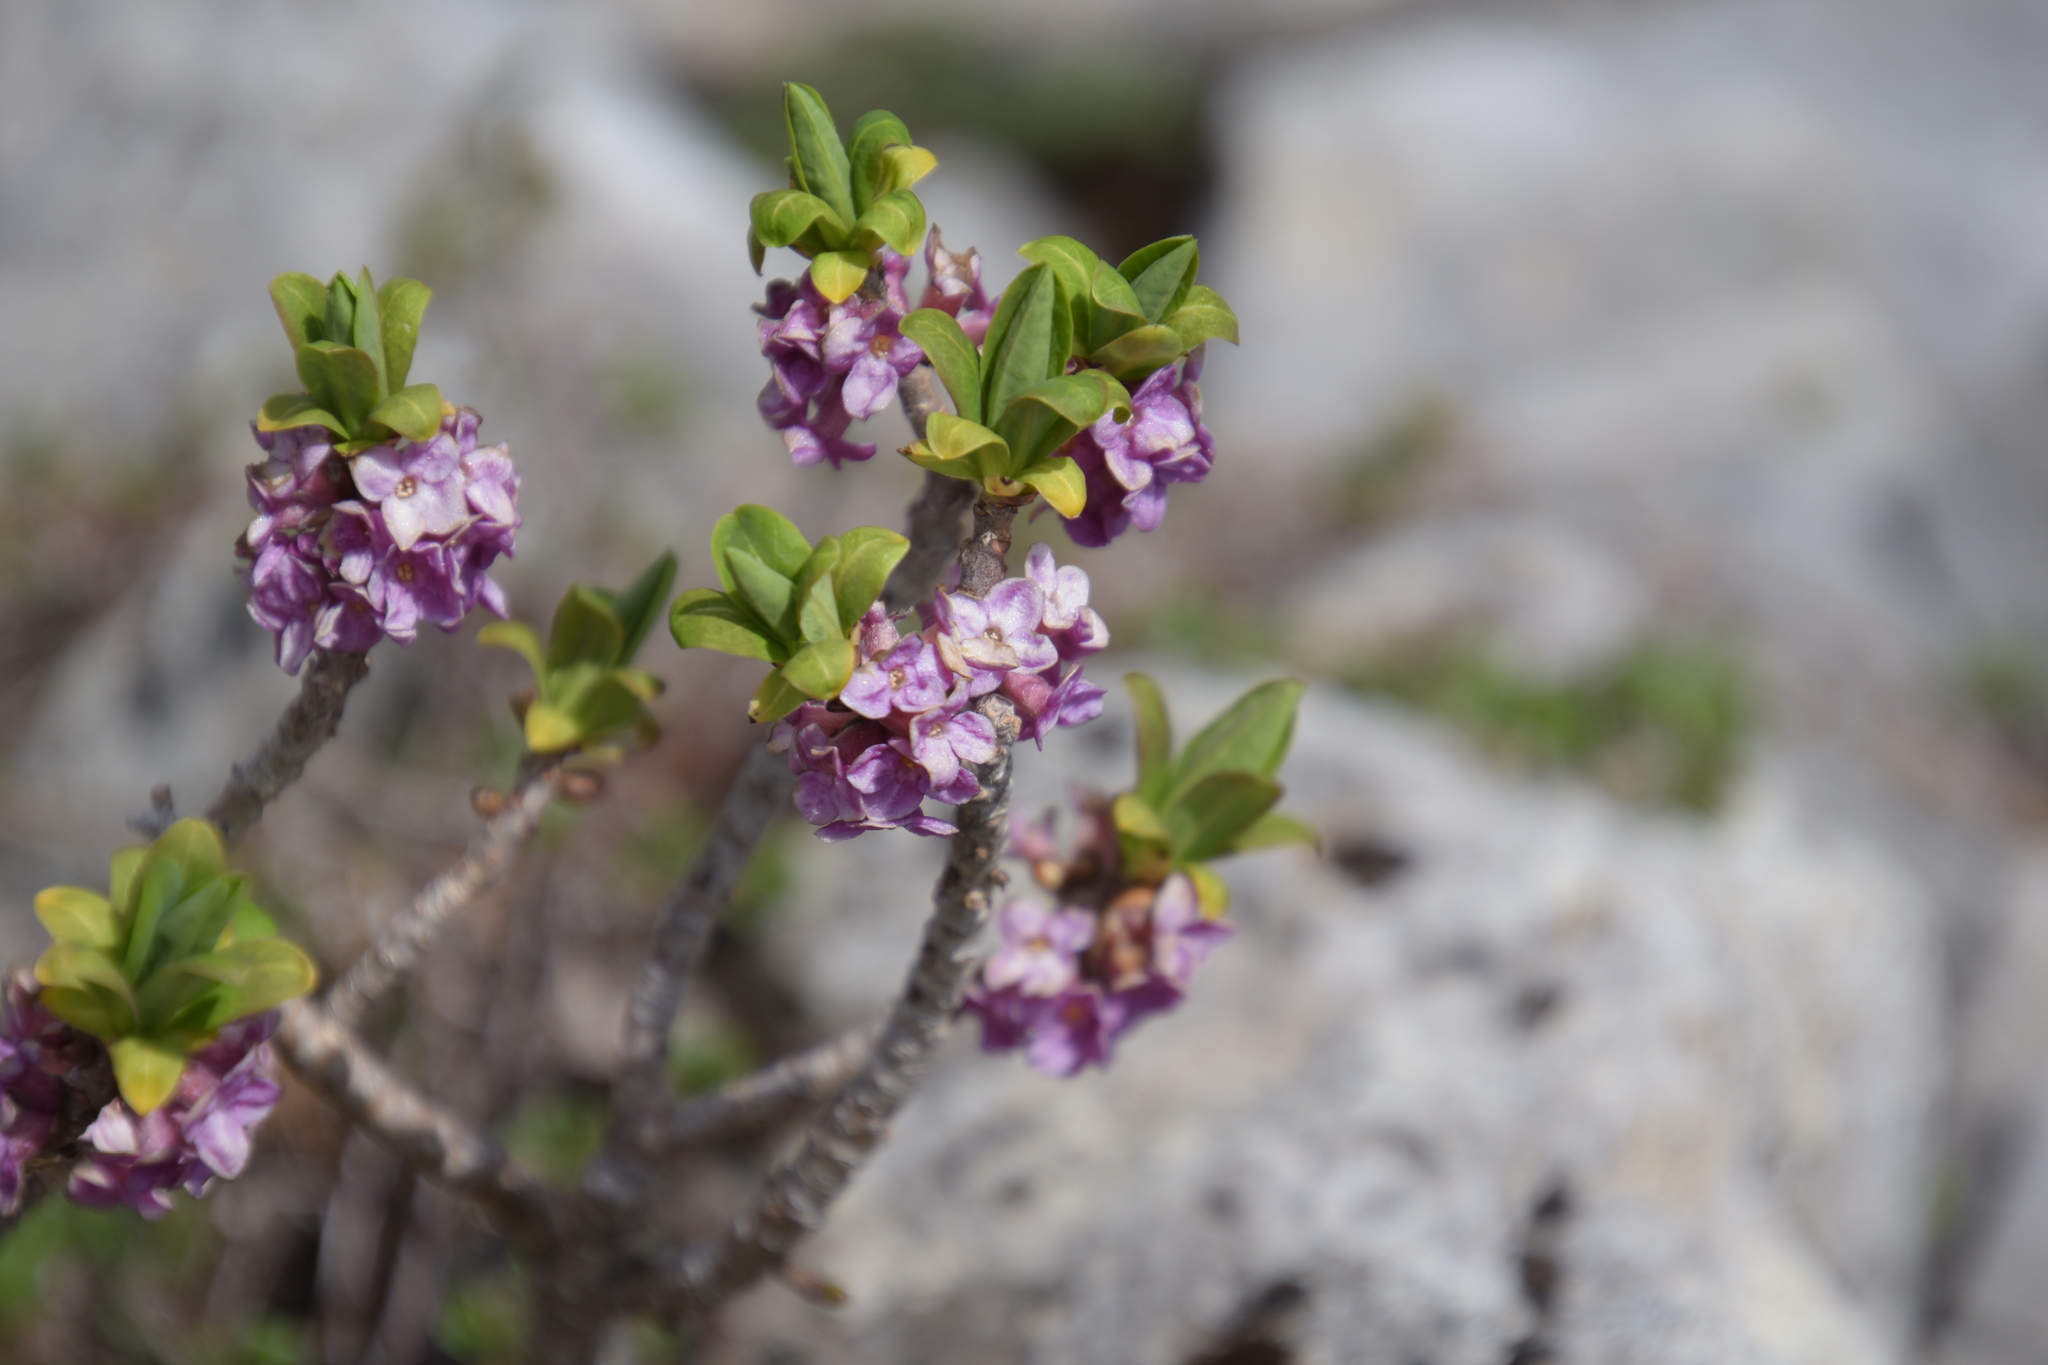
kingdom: Plantae
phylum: Tracheophyta
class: Magnoliopsida
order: Malvales
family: Thymelaeaceae
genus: Daphne
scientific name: Daphne mezereum
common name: Mezereon
